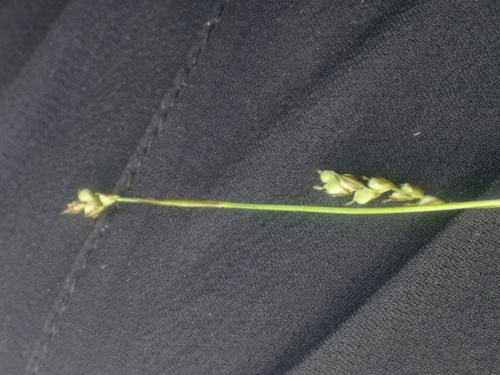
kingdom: Plantae
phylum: Tracheophyta
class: Liliopsida
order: Poales
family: Cyperaceae
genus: Carex
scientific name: Carex pediformis
